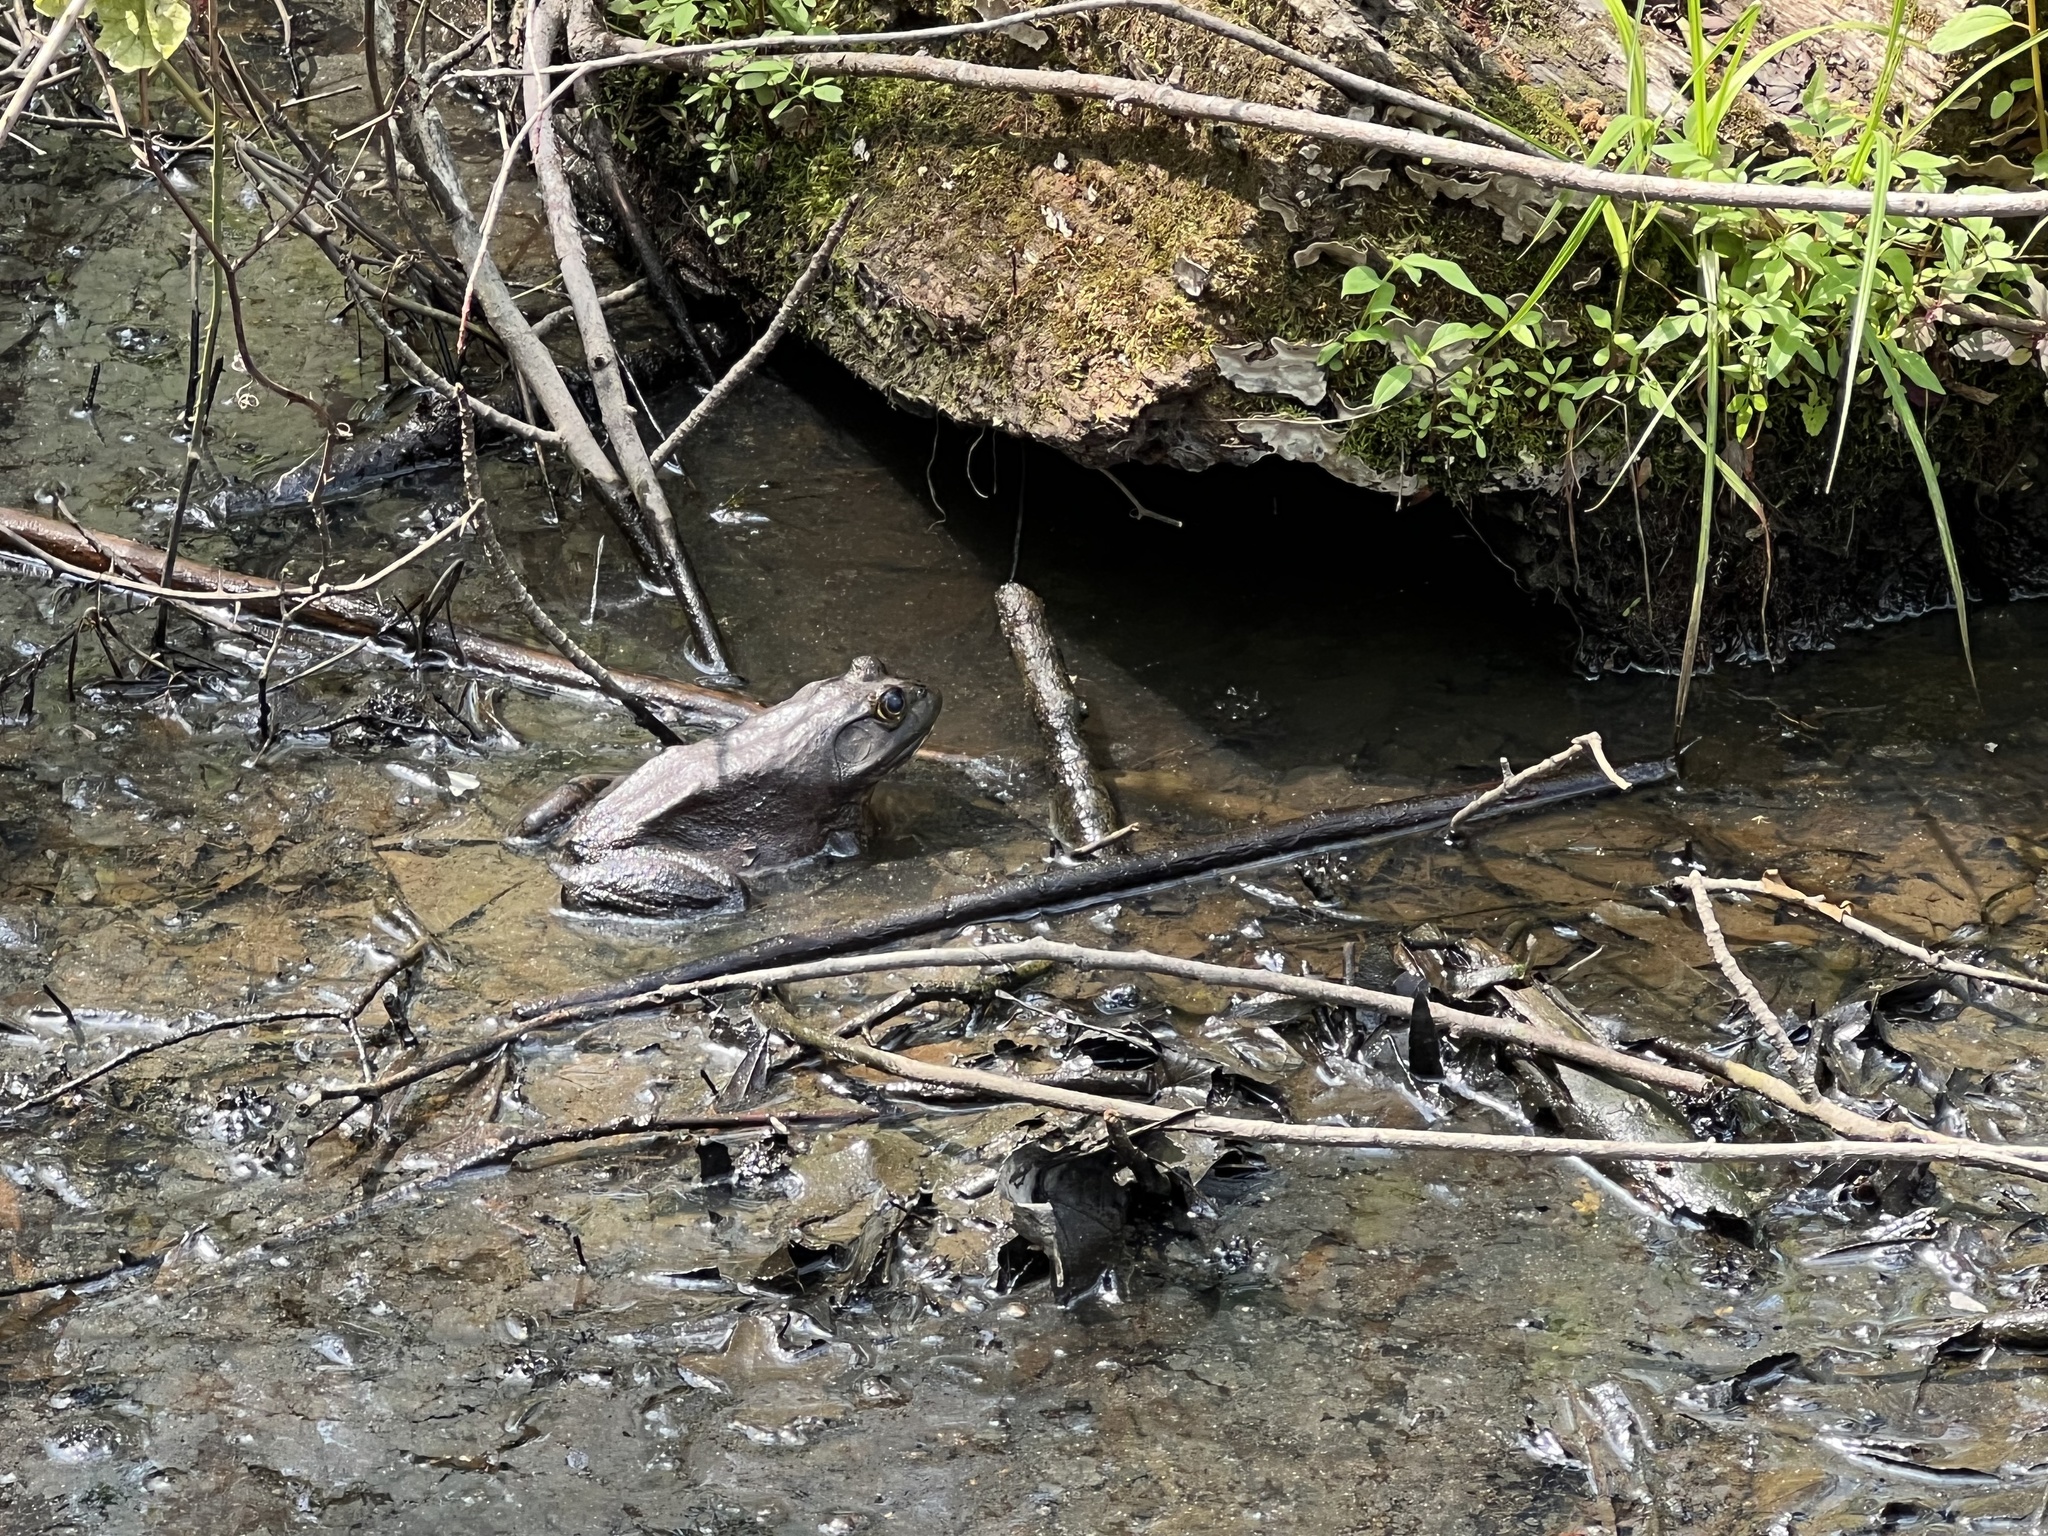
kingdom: Animalia
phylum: Chordata
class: Amphibia
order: Anura
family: Ranidae
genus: Lithobates
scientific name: Lithobates catesbeianus
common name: American bullfrog
